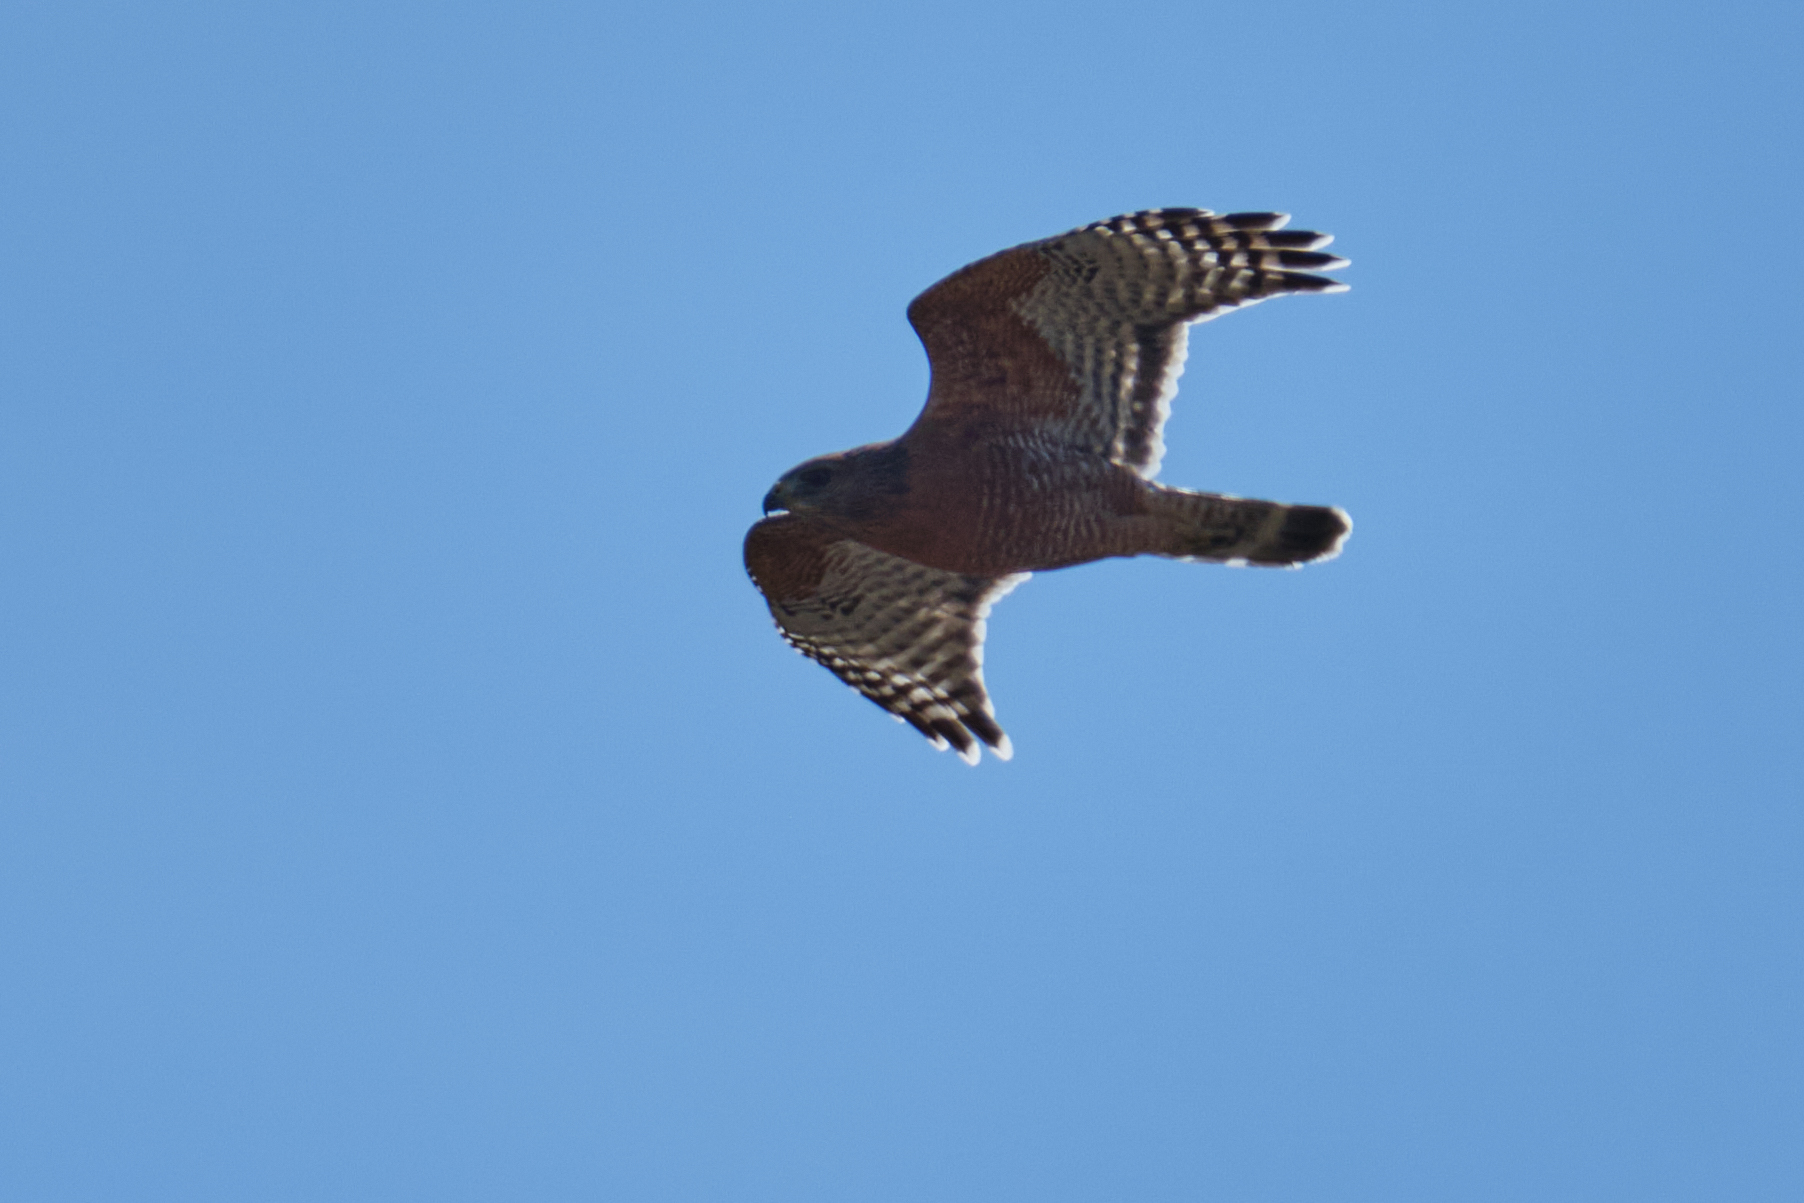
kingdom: Animalia
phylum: Chordata
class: Aves
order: Accipitriformes
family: Accipitridae
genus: Buteo
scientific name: Buteo lineatus
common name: Red-shouldered hawk
